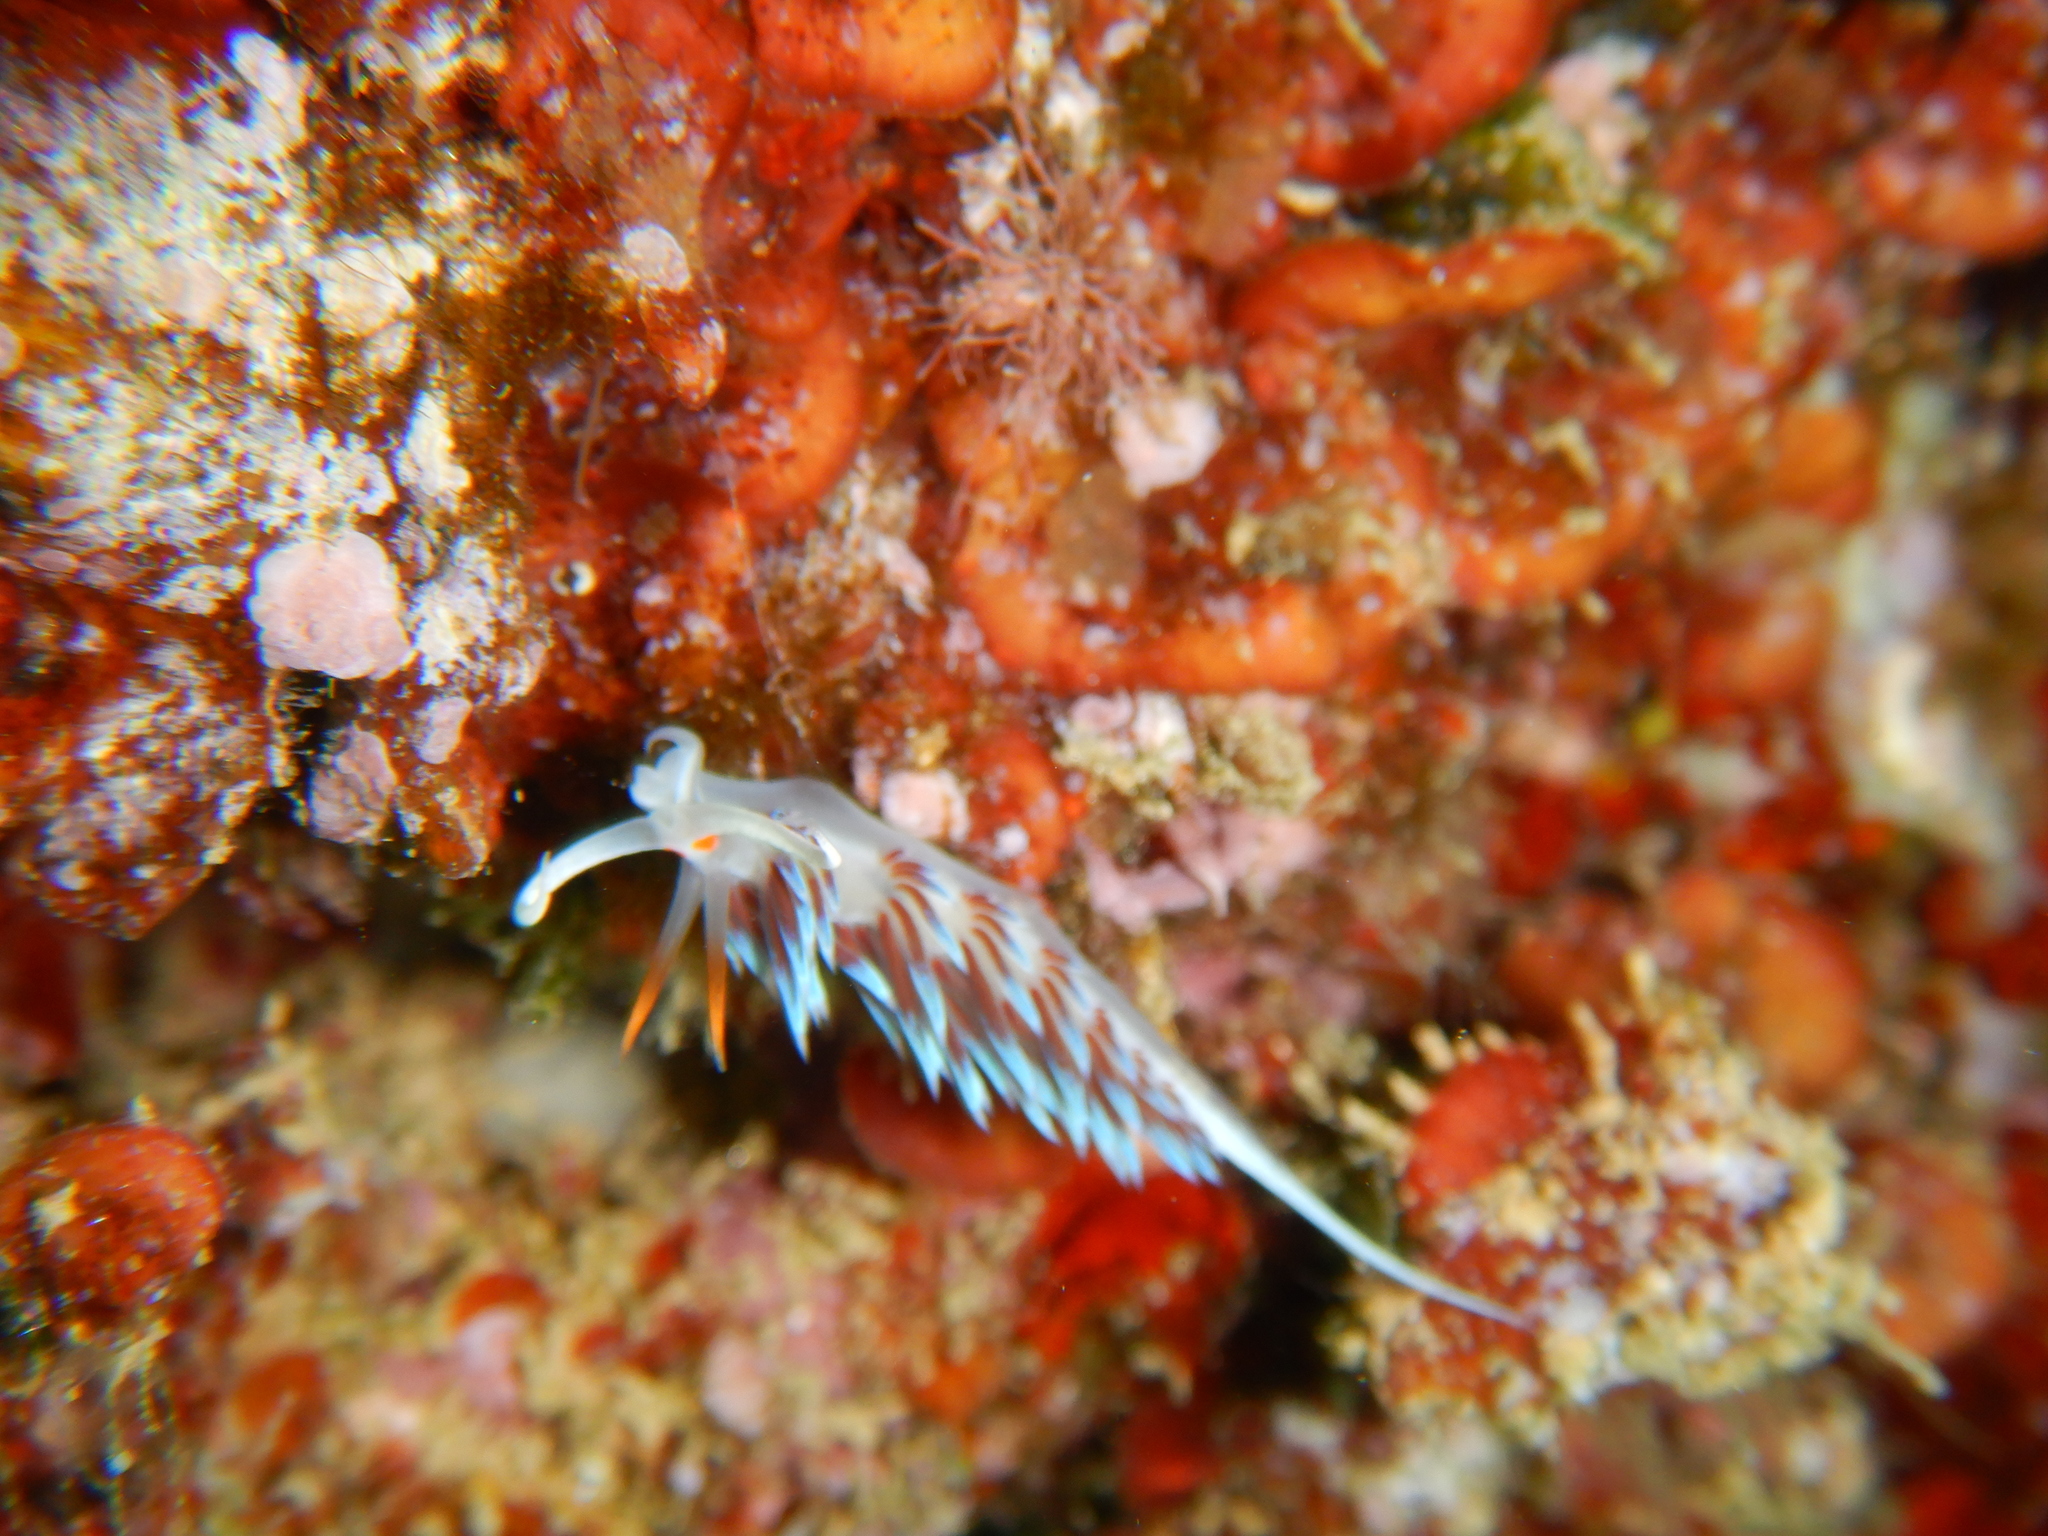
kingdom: Animalia
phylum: Mollusca
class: Gastropoda
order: Nudibranchia
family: Facelinidae
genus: Cratena
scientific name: Cratena peregrina
